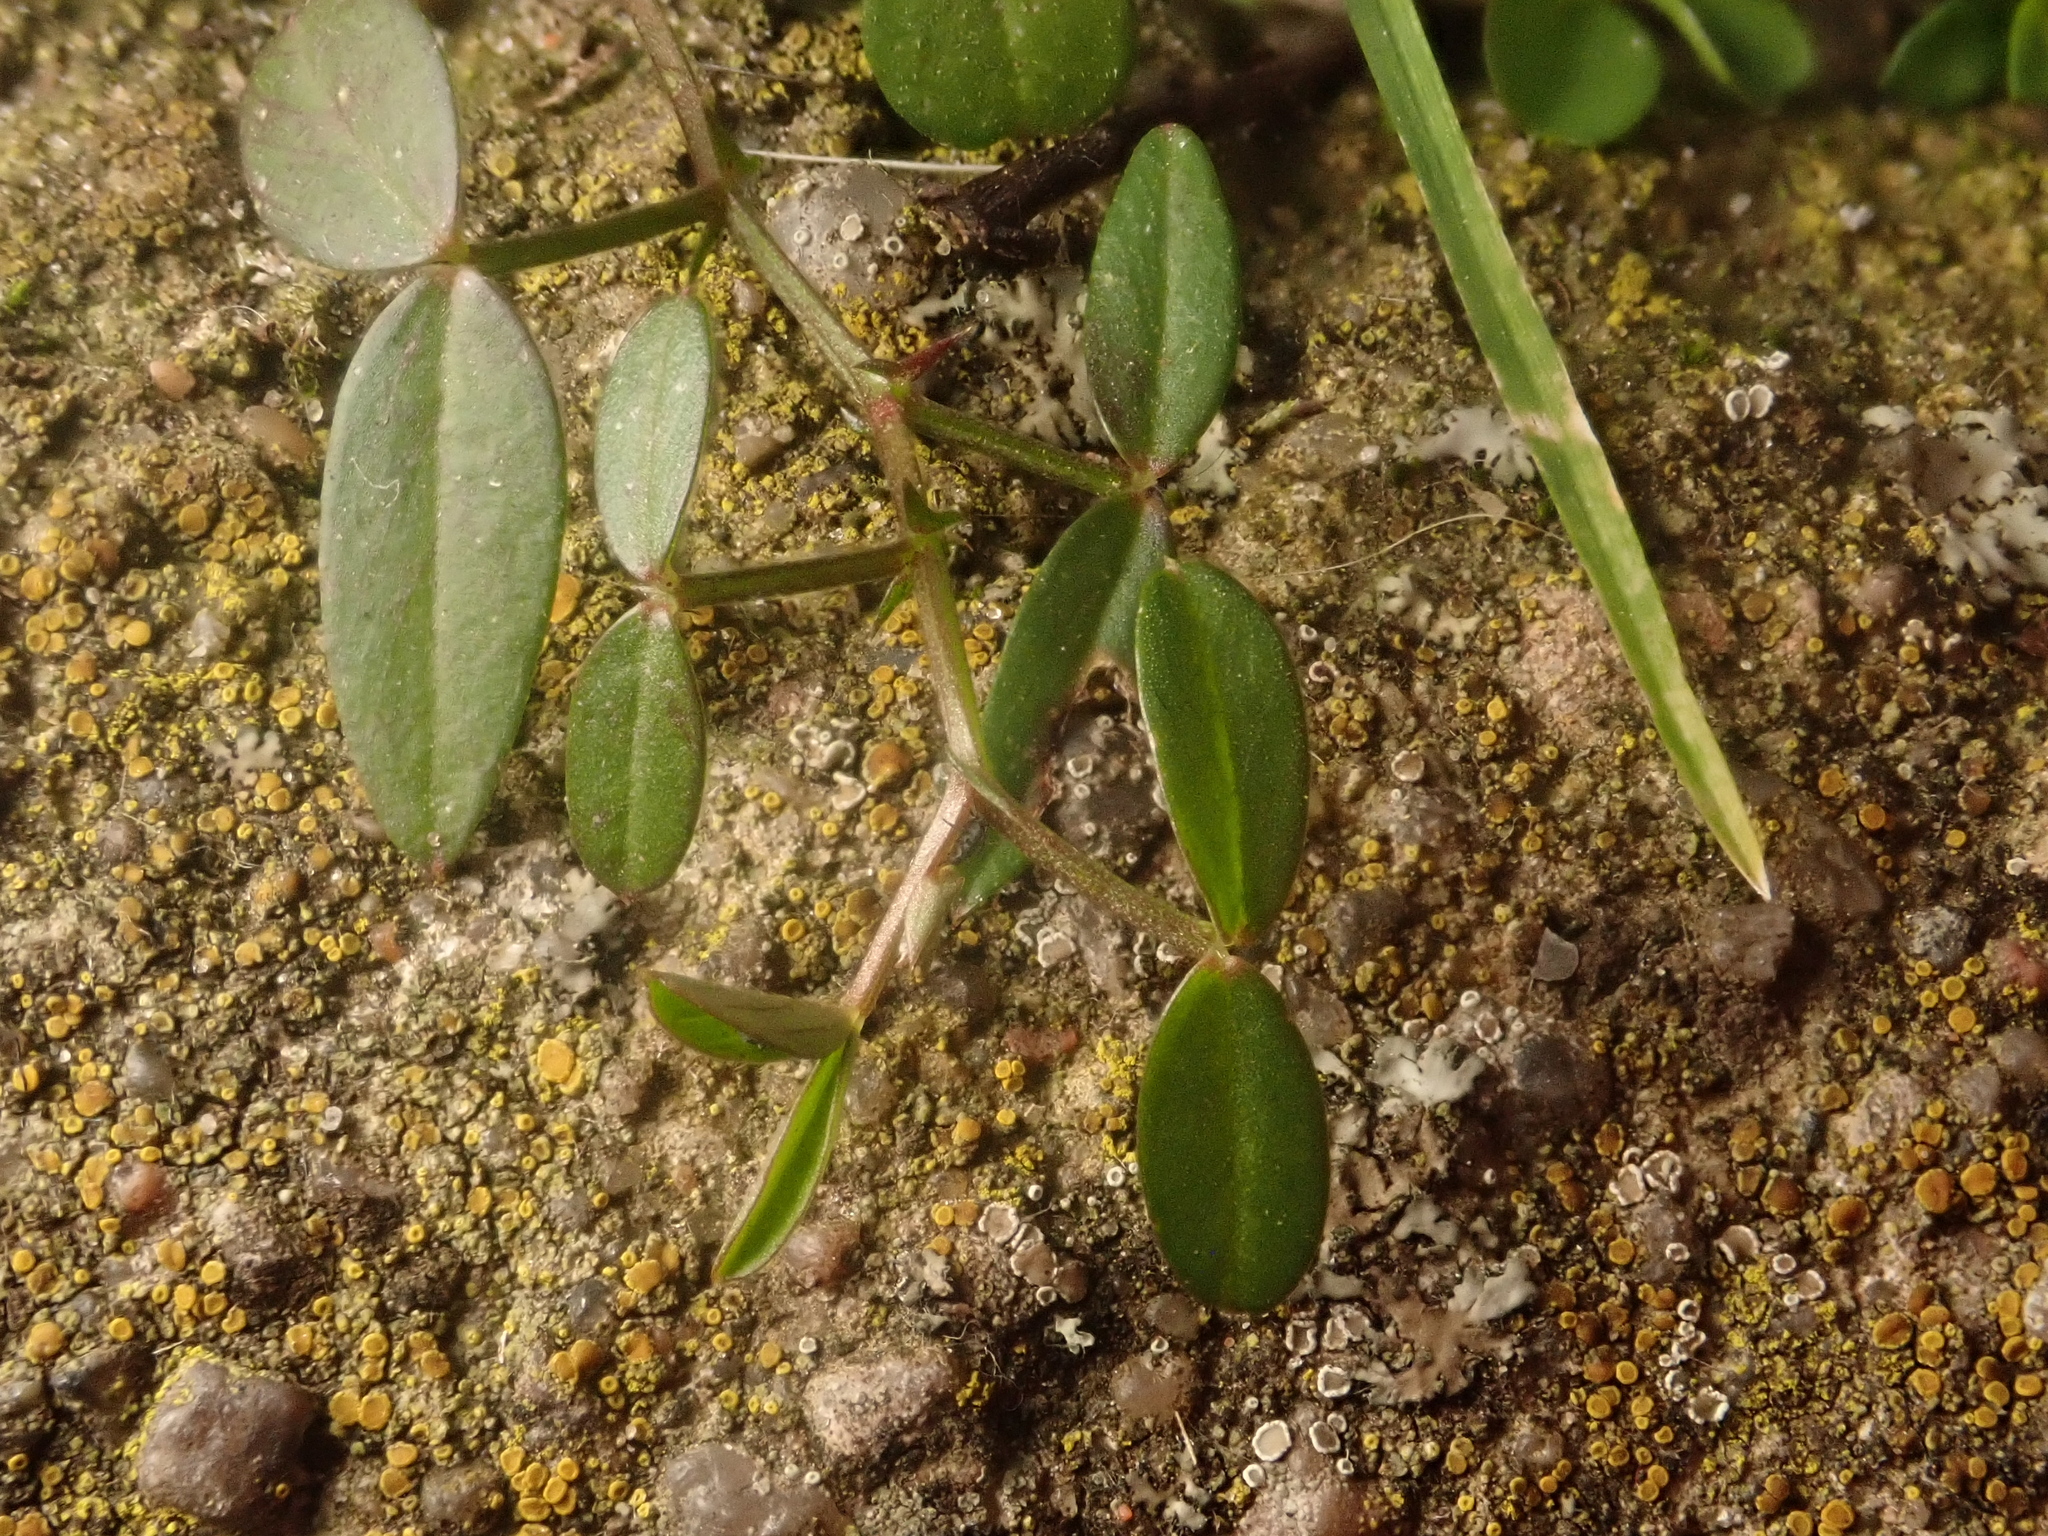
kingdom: Plantae
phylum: Tracheophyta
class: Magnoliopsida
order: Fabales
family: Fabaceae
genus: Vicia
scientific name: Vicia lathyroides
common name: Spring vetch
